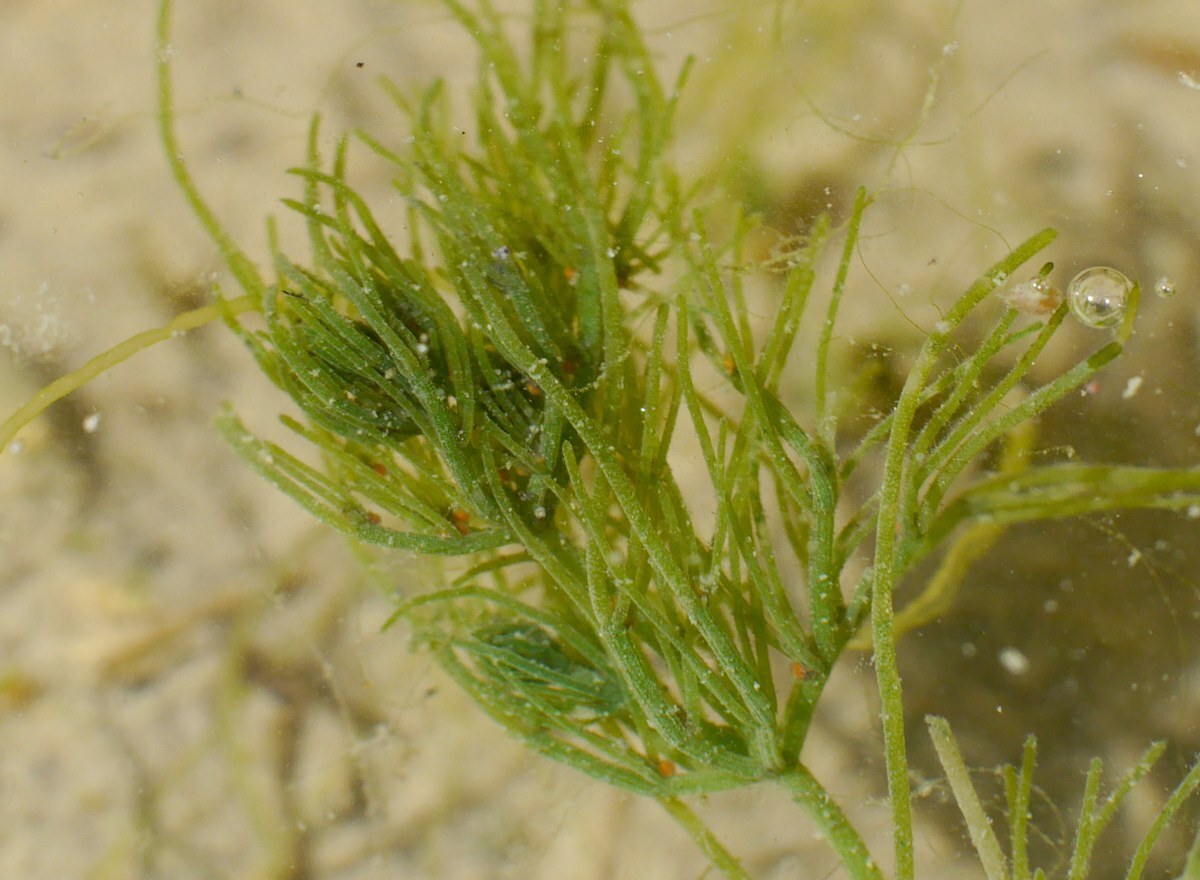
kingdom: Plantae
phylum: Charophyta
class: Charophyceae
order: Charales
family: Characeae
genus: Chara
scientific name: Chara vulgaris
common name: Common stonewort
